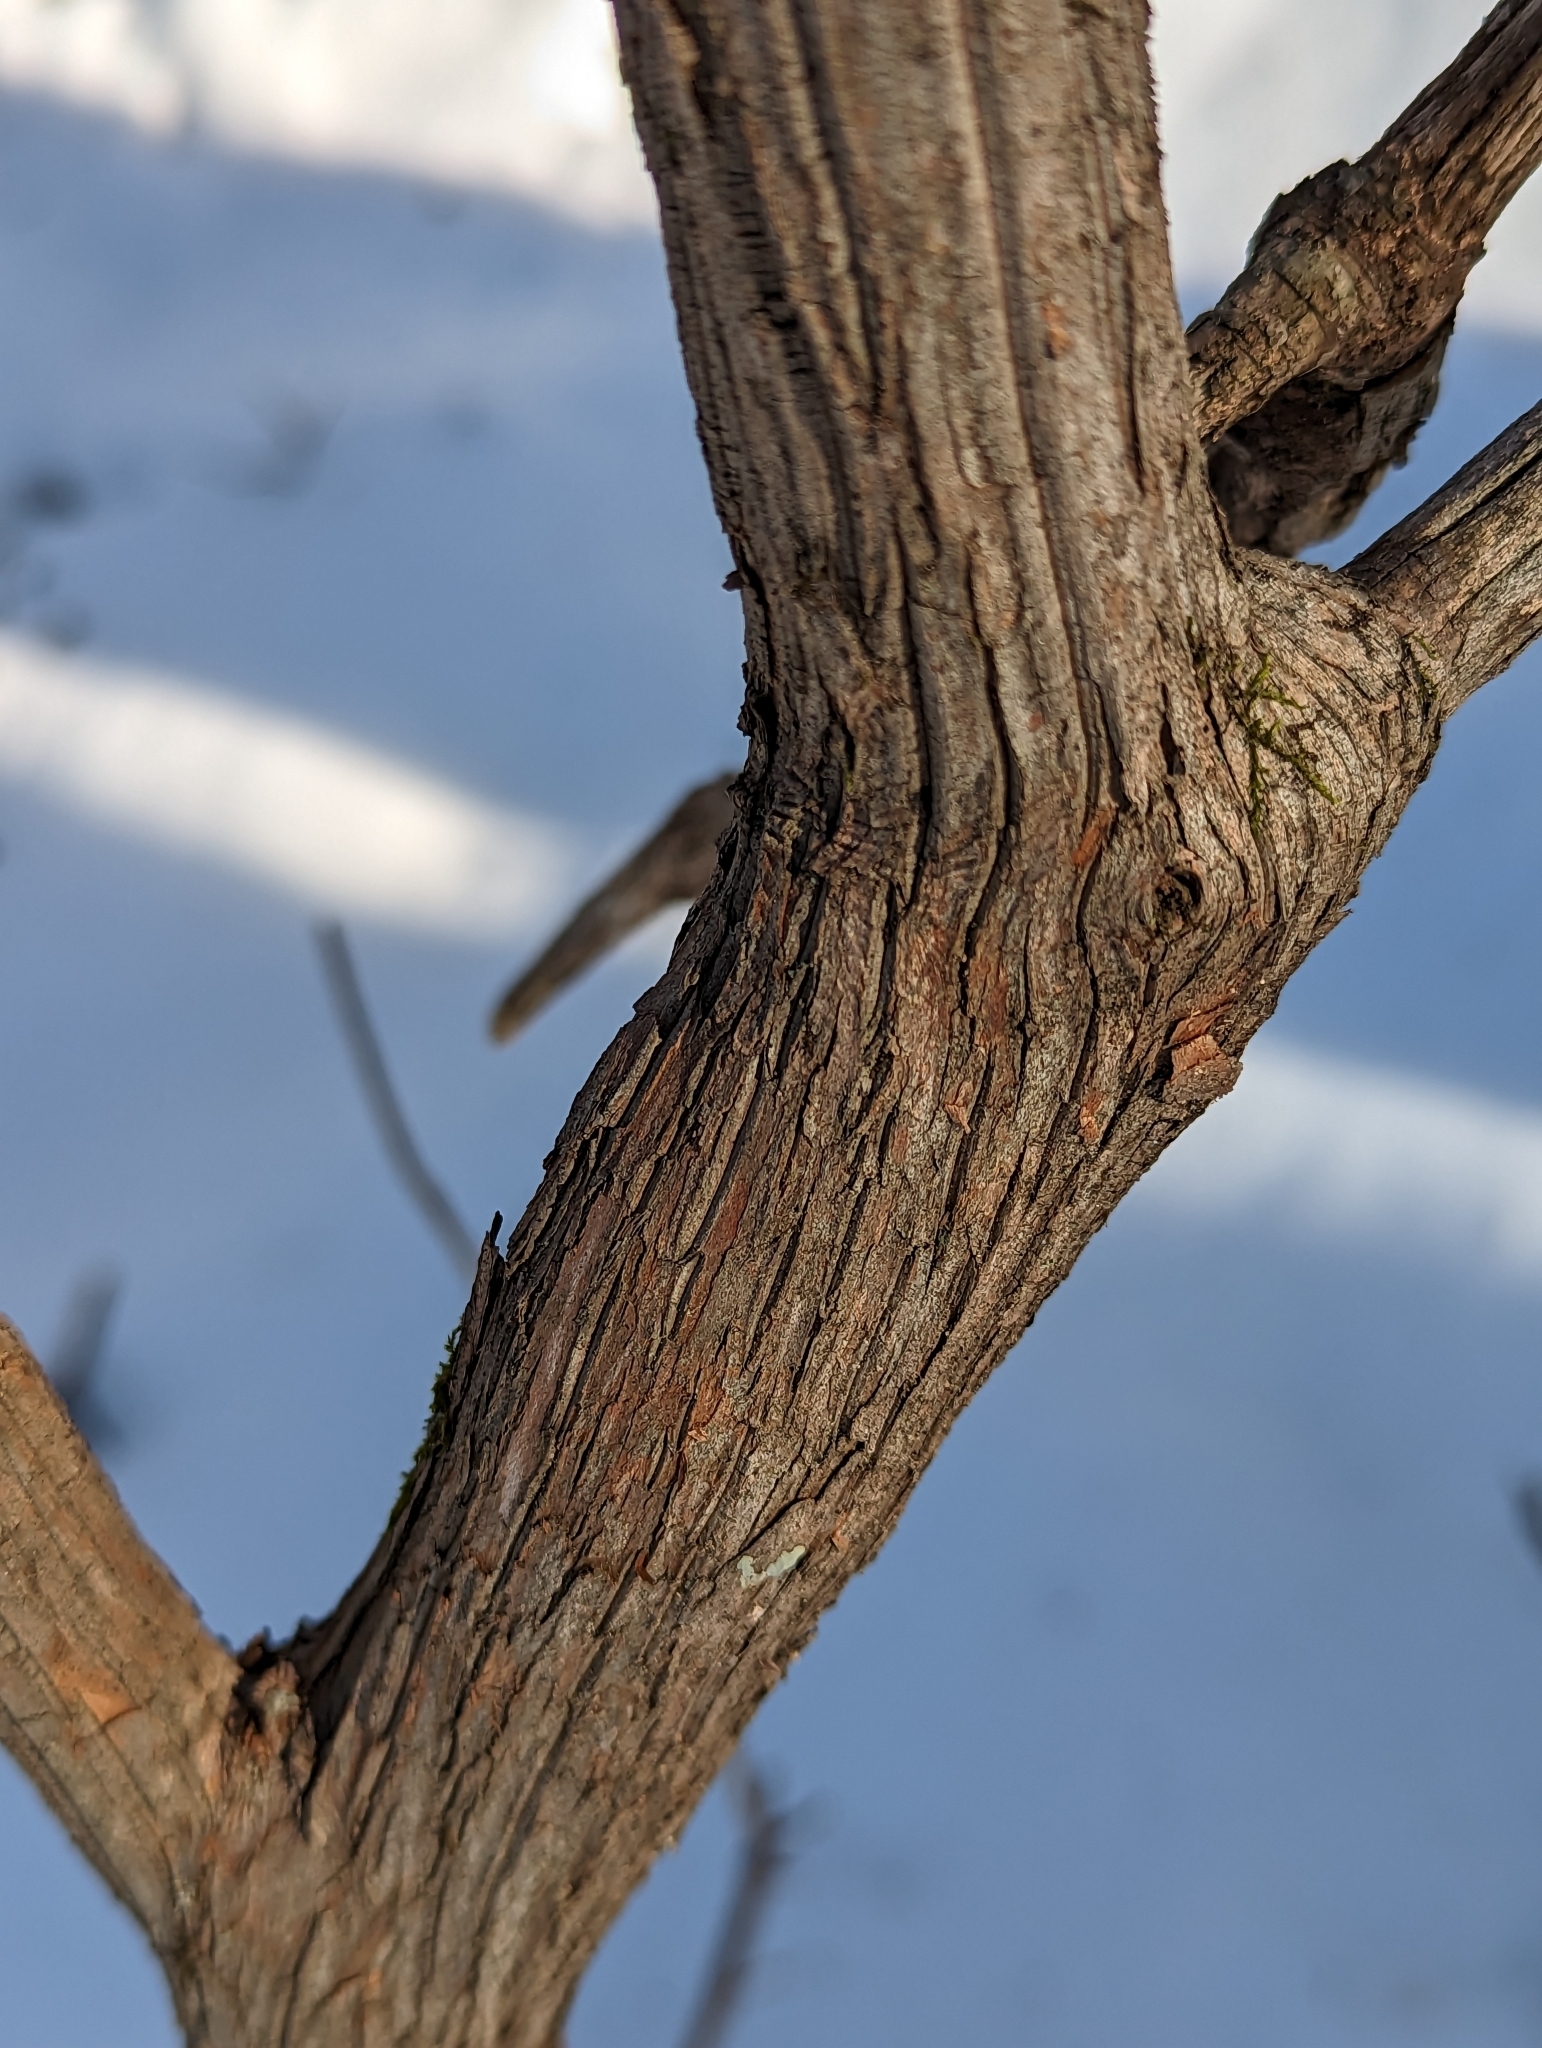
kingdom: Plantae
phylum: Tracheophyta
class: Magnoliopsida
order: Ericales
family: Ericaceae
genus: Kalmia
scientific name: Kalmia latifolia
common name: Mountain-laurel
